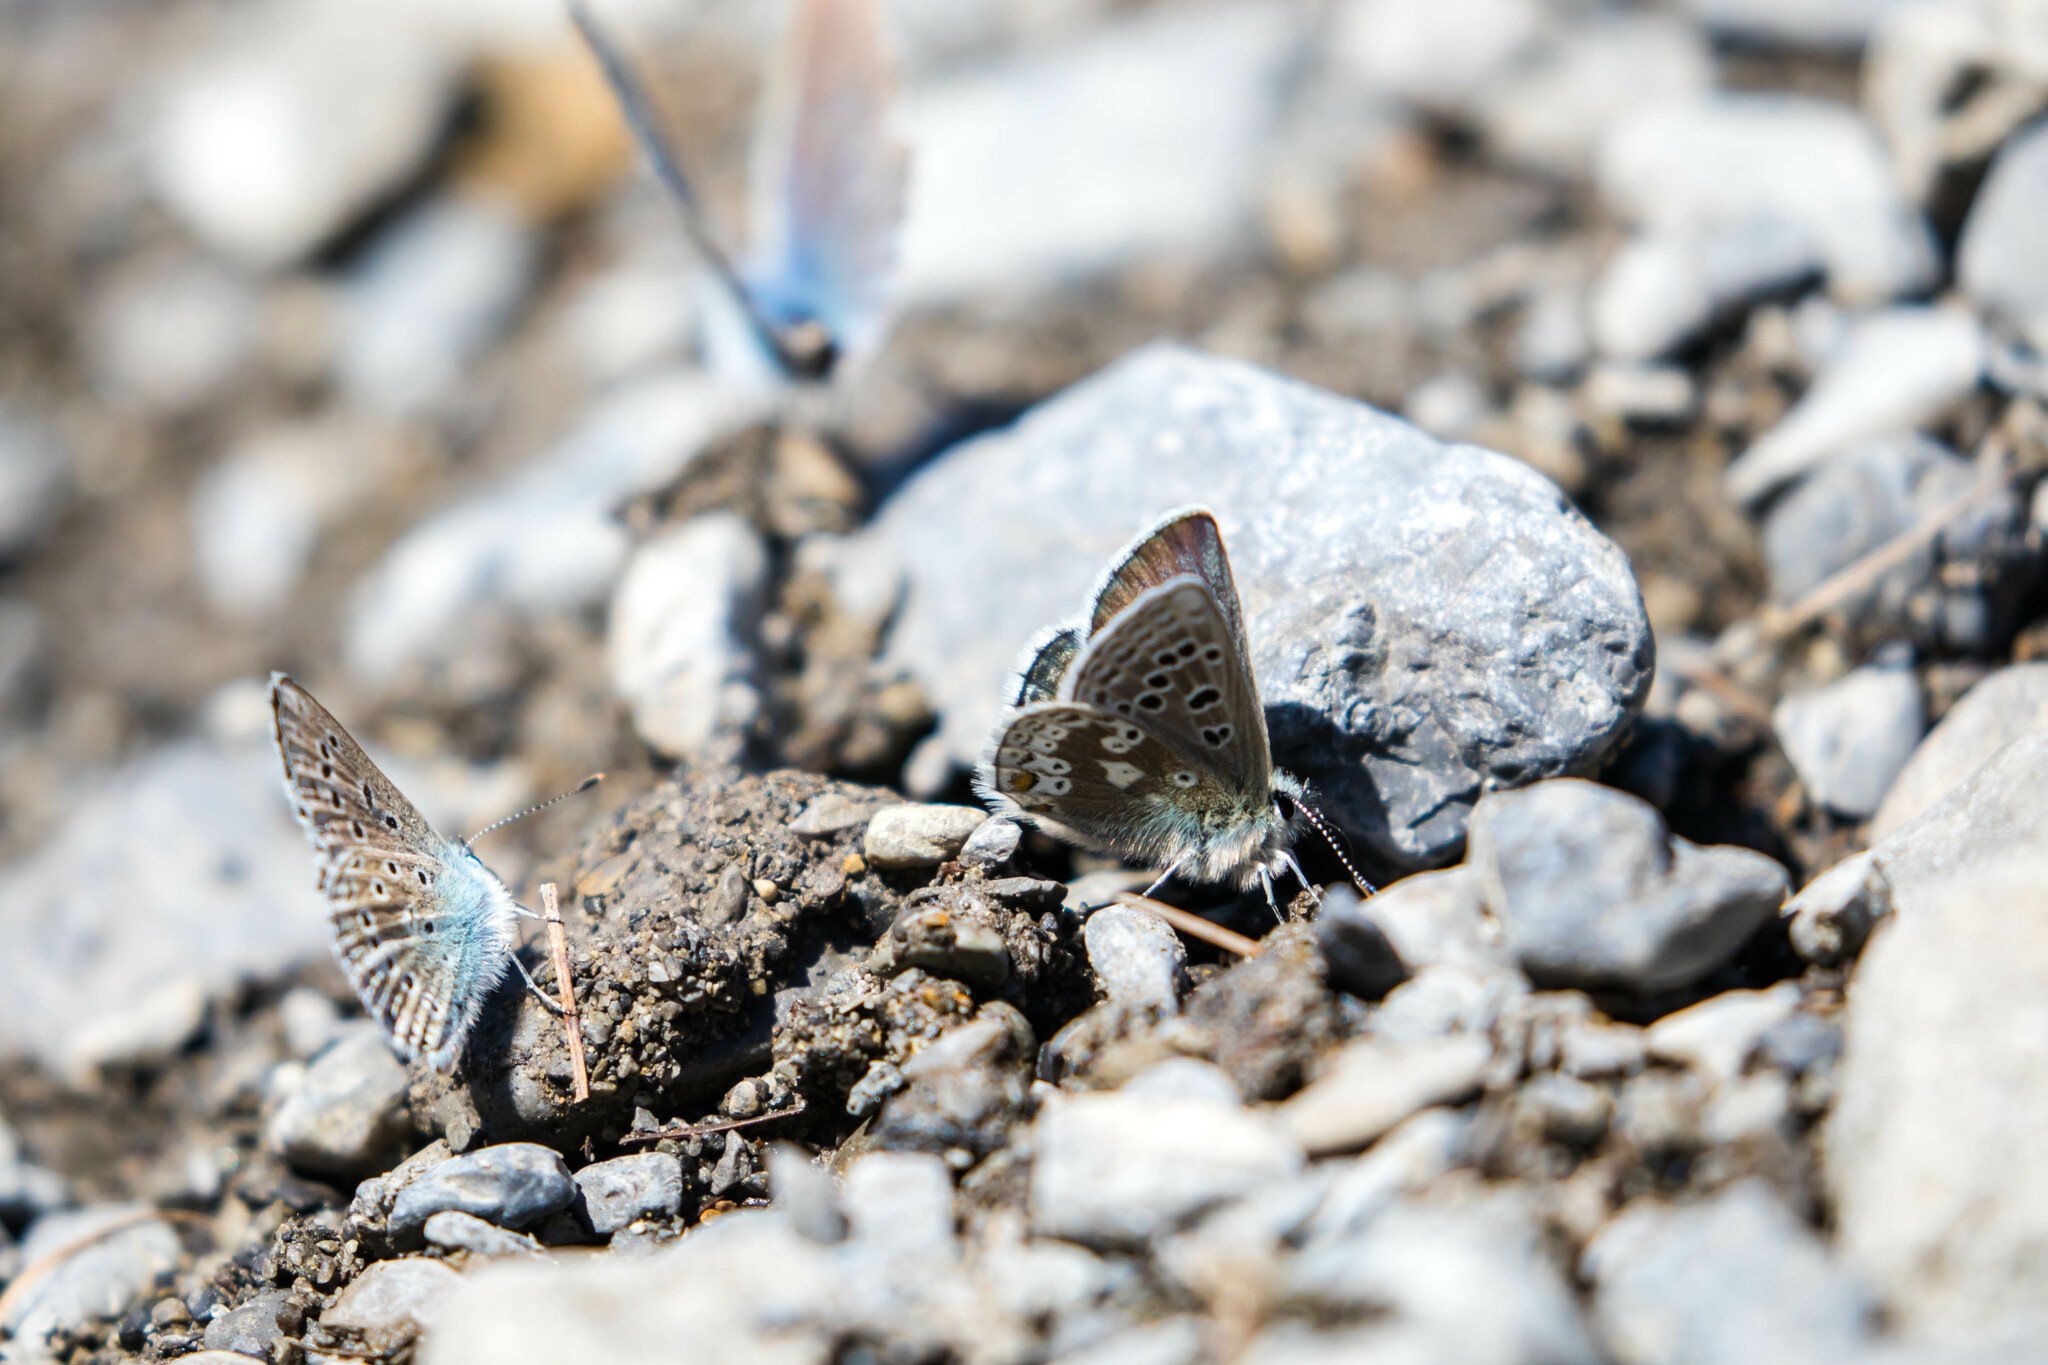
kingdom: Animalia
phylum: Arthropoda
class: Insecta
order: Lepidoptera
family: Lycaenidae
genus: Agriades
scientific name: Agriades glandon
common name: Glandon blue
